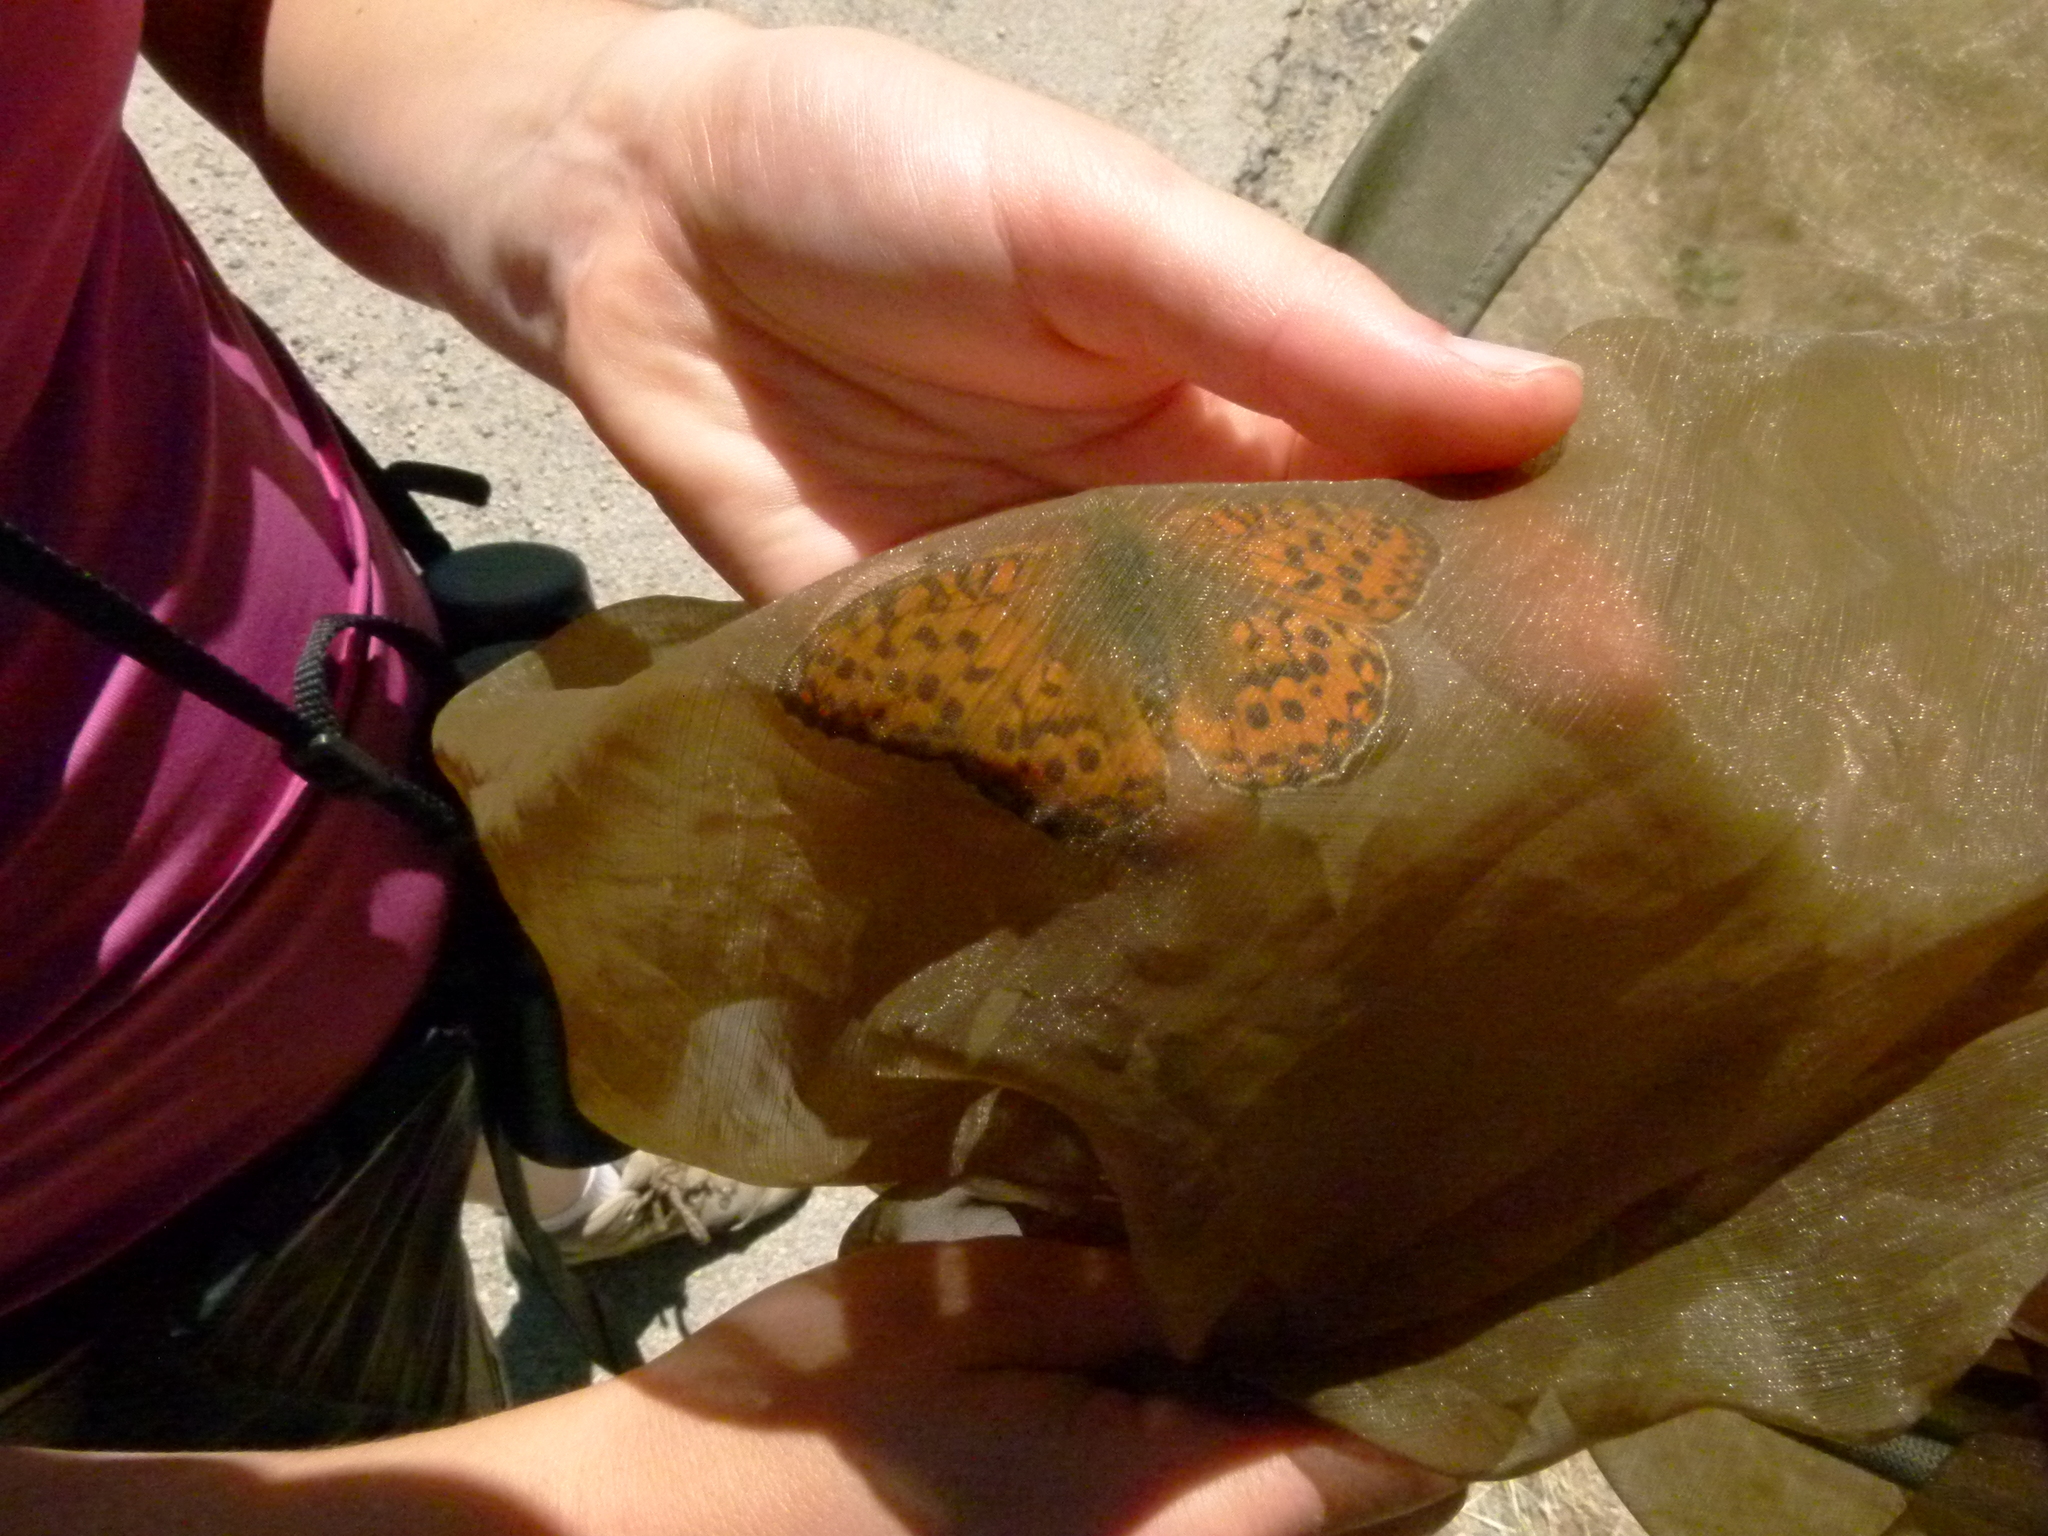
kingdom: Animalia
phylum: Arthropoda
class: Insecta
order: Lepidoptera
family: Nymphalidae
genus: Speyeria
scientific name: Speyeria aglaja
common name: Dark green fritillary
